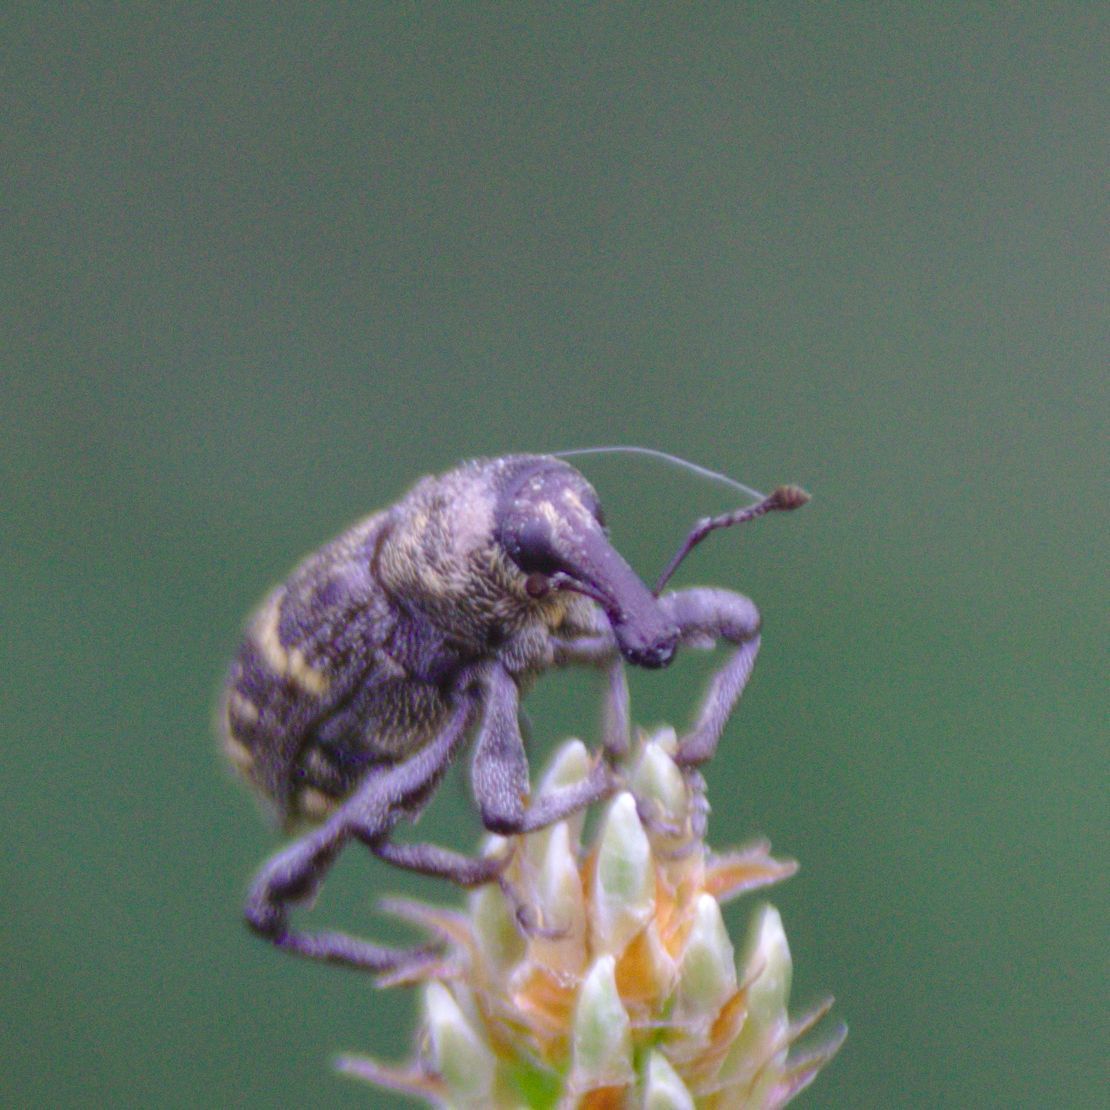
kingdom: Animalia
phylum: Arthropoda
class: Insecta
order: Coleoptera
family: Curculionidae
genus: Hylobius
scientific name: Hylobius abietis
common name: Large pine weevil
